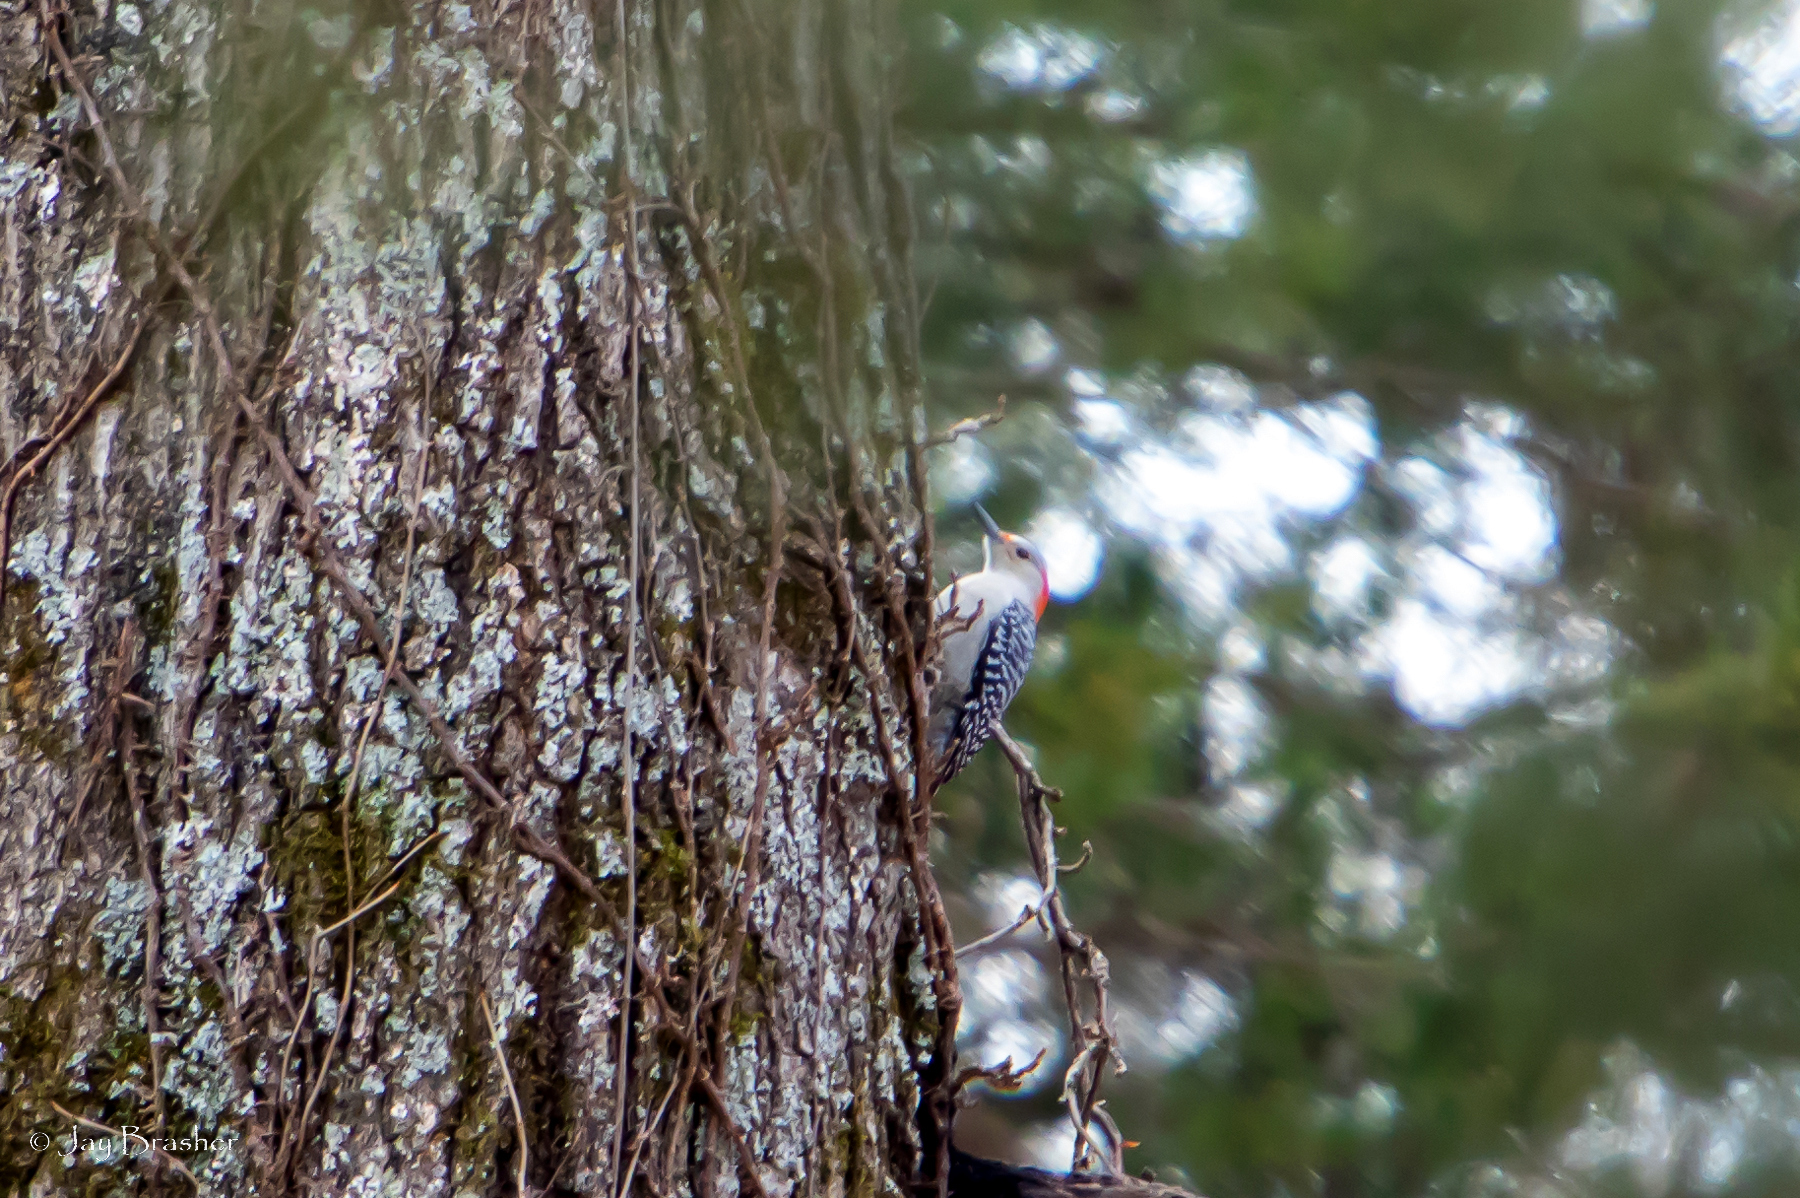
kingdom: Animalia
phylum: Chordata
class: Aves
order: Piciformes
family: Picidae
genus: Melanerpes
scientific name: Melanerpes carolinus
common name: Red-bellied woodpecker
